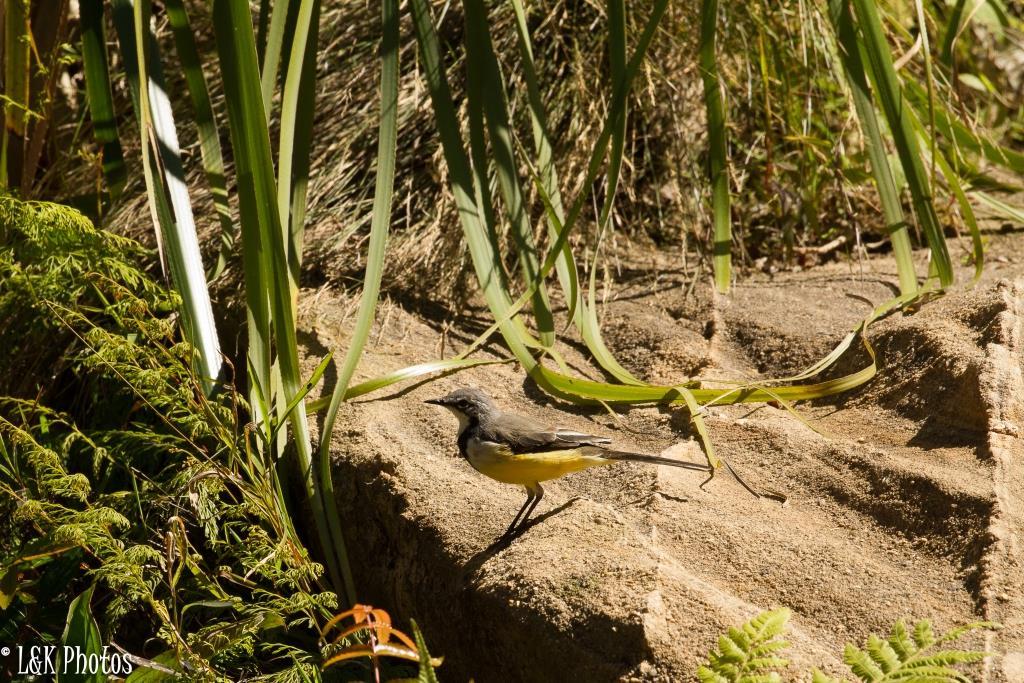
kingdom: Animalia
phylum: Chordata
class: Aves
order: Passeriformes
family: Motacillidae
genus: Motacilla
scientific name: Motacilla flaviventris
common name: Madagascar wagtail
